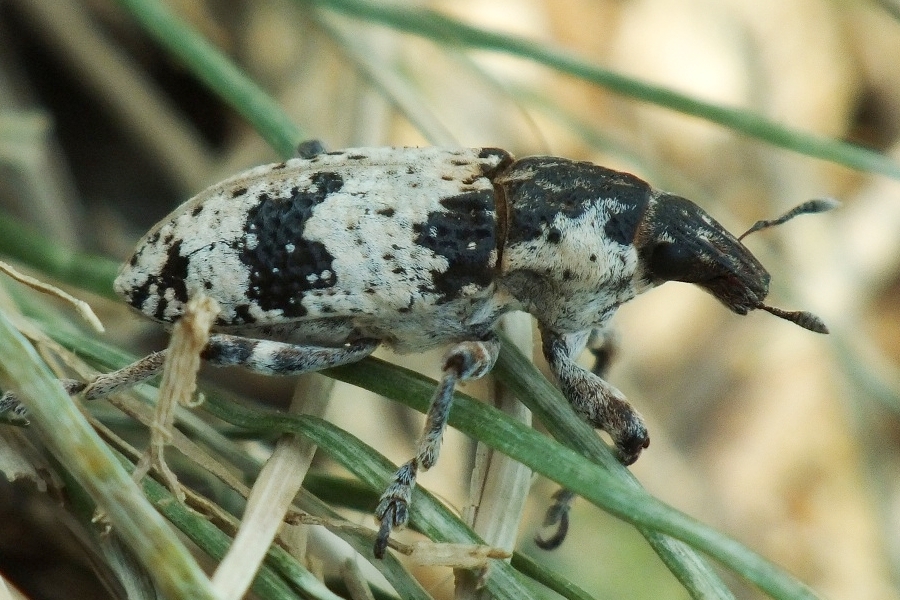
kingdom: Animalia
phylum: Arthropoda
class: Insecta
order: Coleoptera
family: Curculionidae
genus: Bothynoderes
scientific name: Bothynoderes affinis
